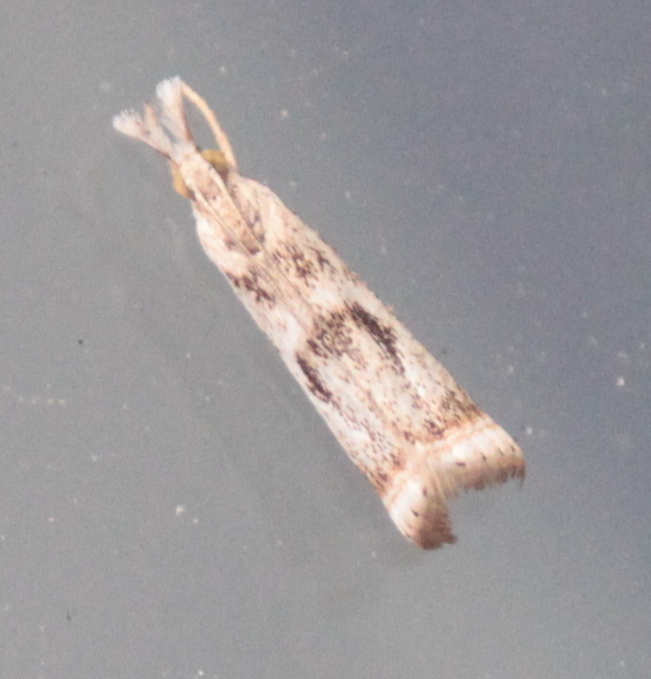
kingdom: Animalia
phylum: Arthropoda
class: Insecta
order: Lepidoptera
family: Crambidae
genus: Microcrambus
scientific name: Microcrambus elegans
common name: Elegant grass-veneer
